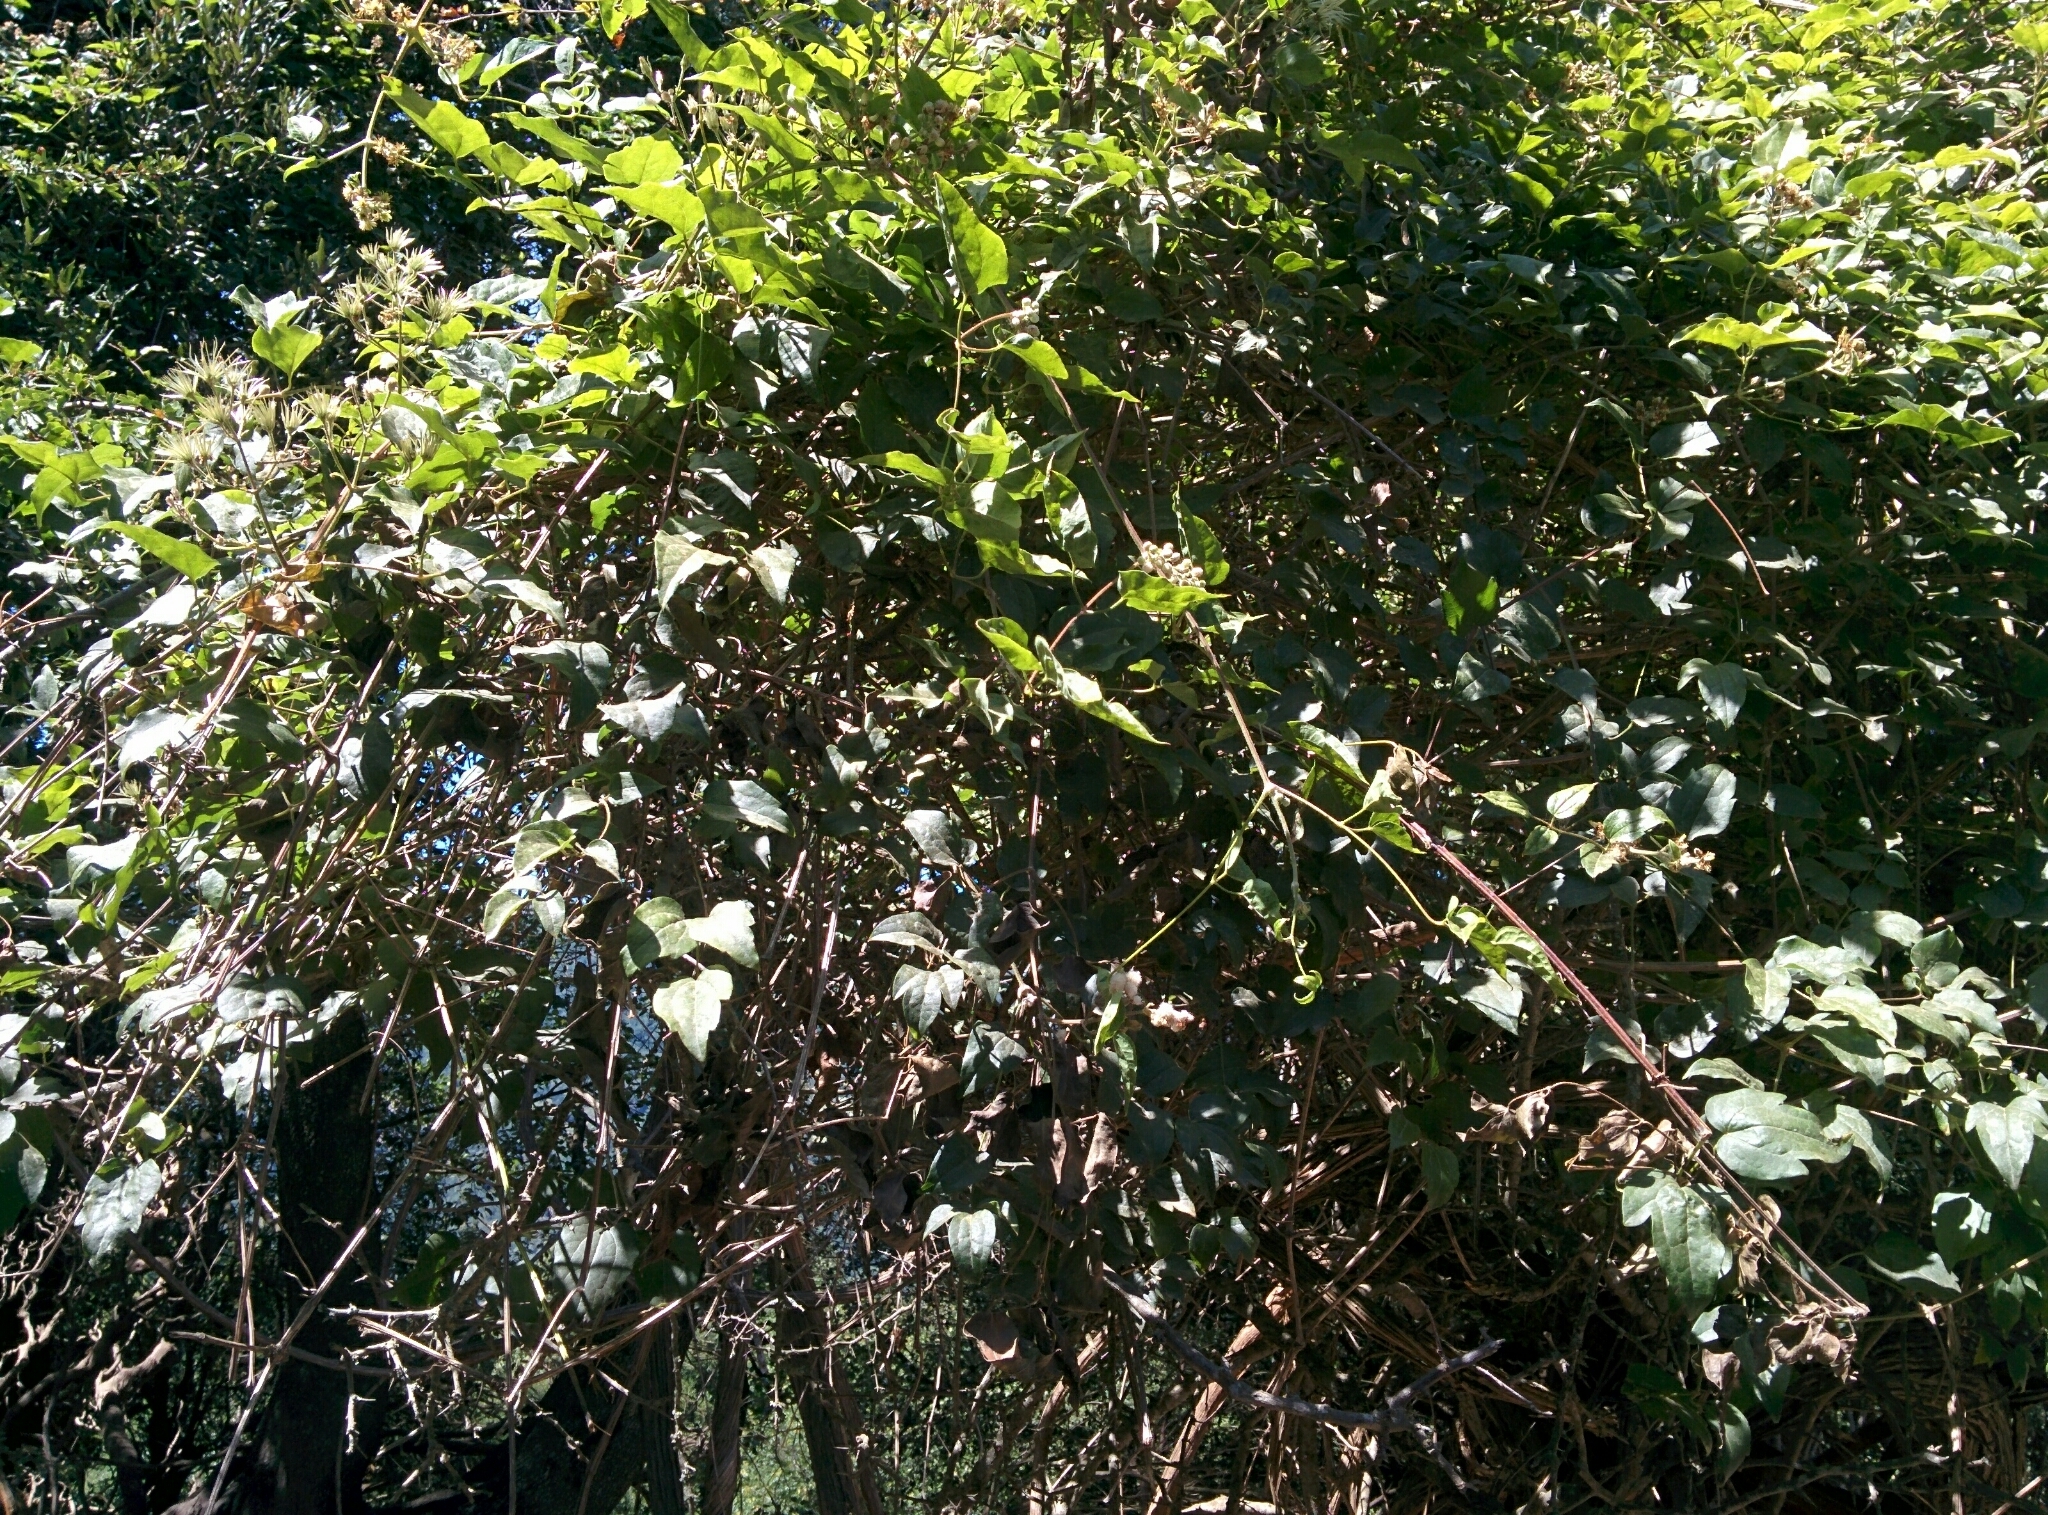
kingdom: Plantae
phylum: Tracheophyta
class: Magnoliopsida
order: Ranunculales
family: Ranunculaceae
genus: Clematis
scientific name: Clematis vitalba
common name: Evergreen clematis
